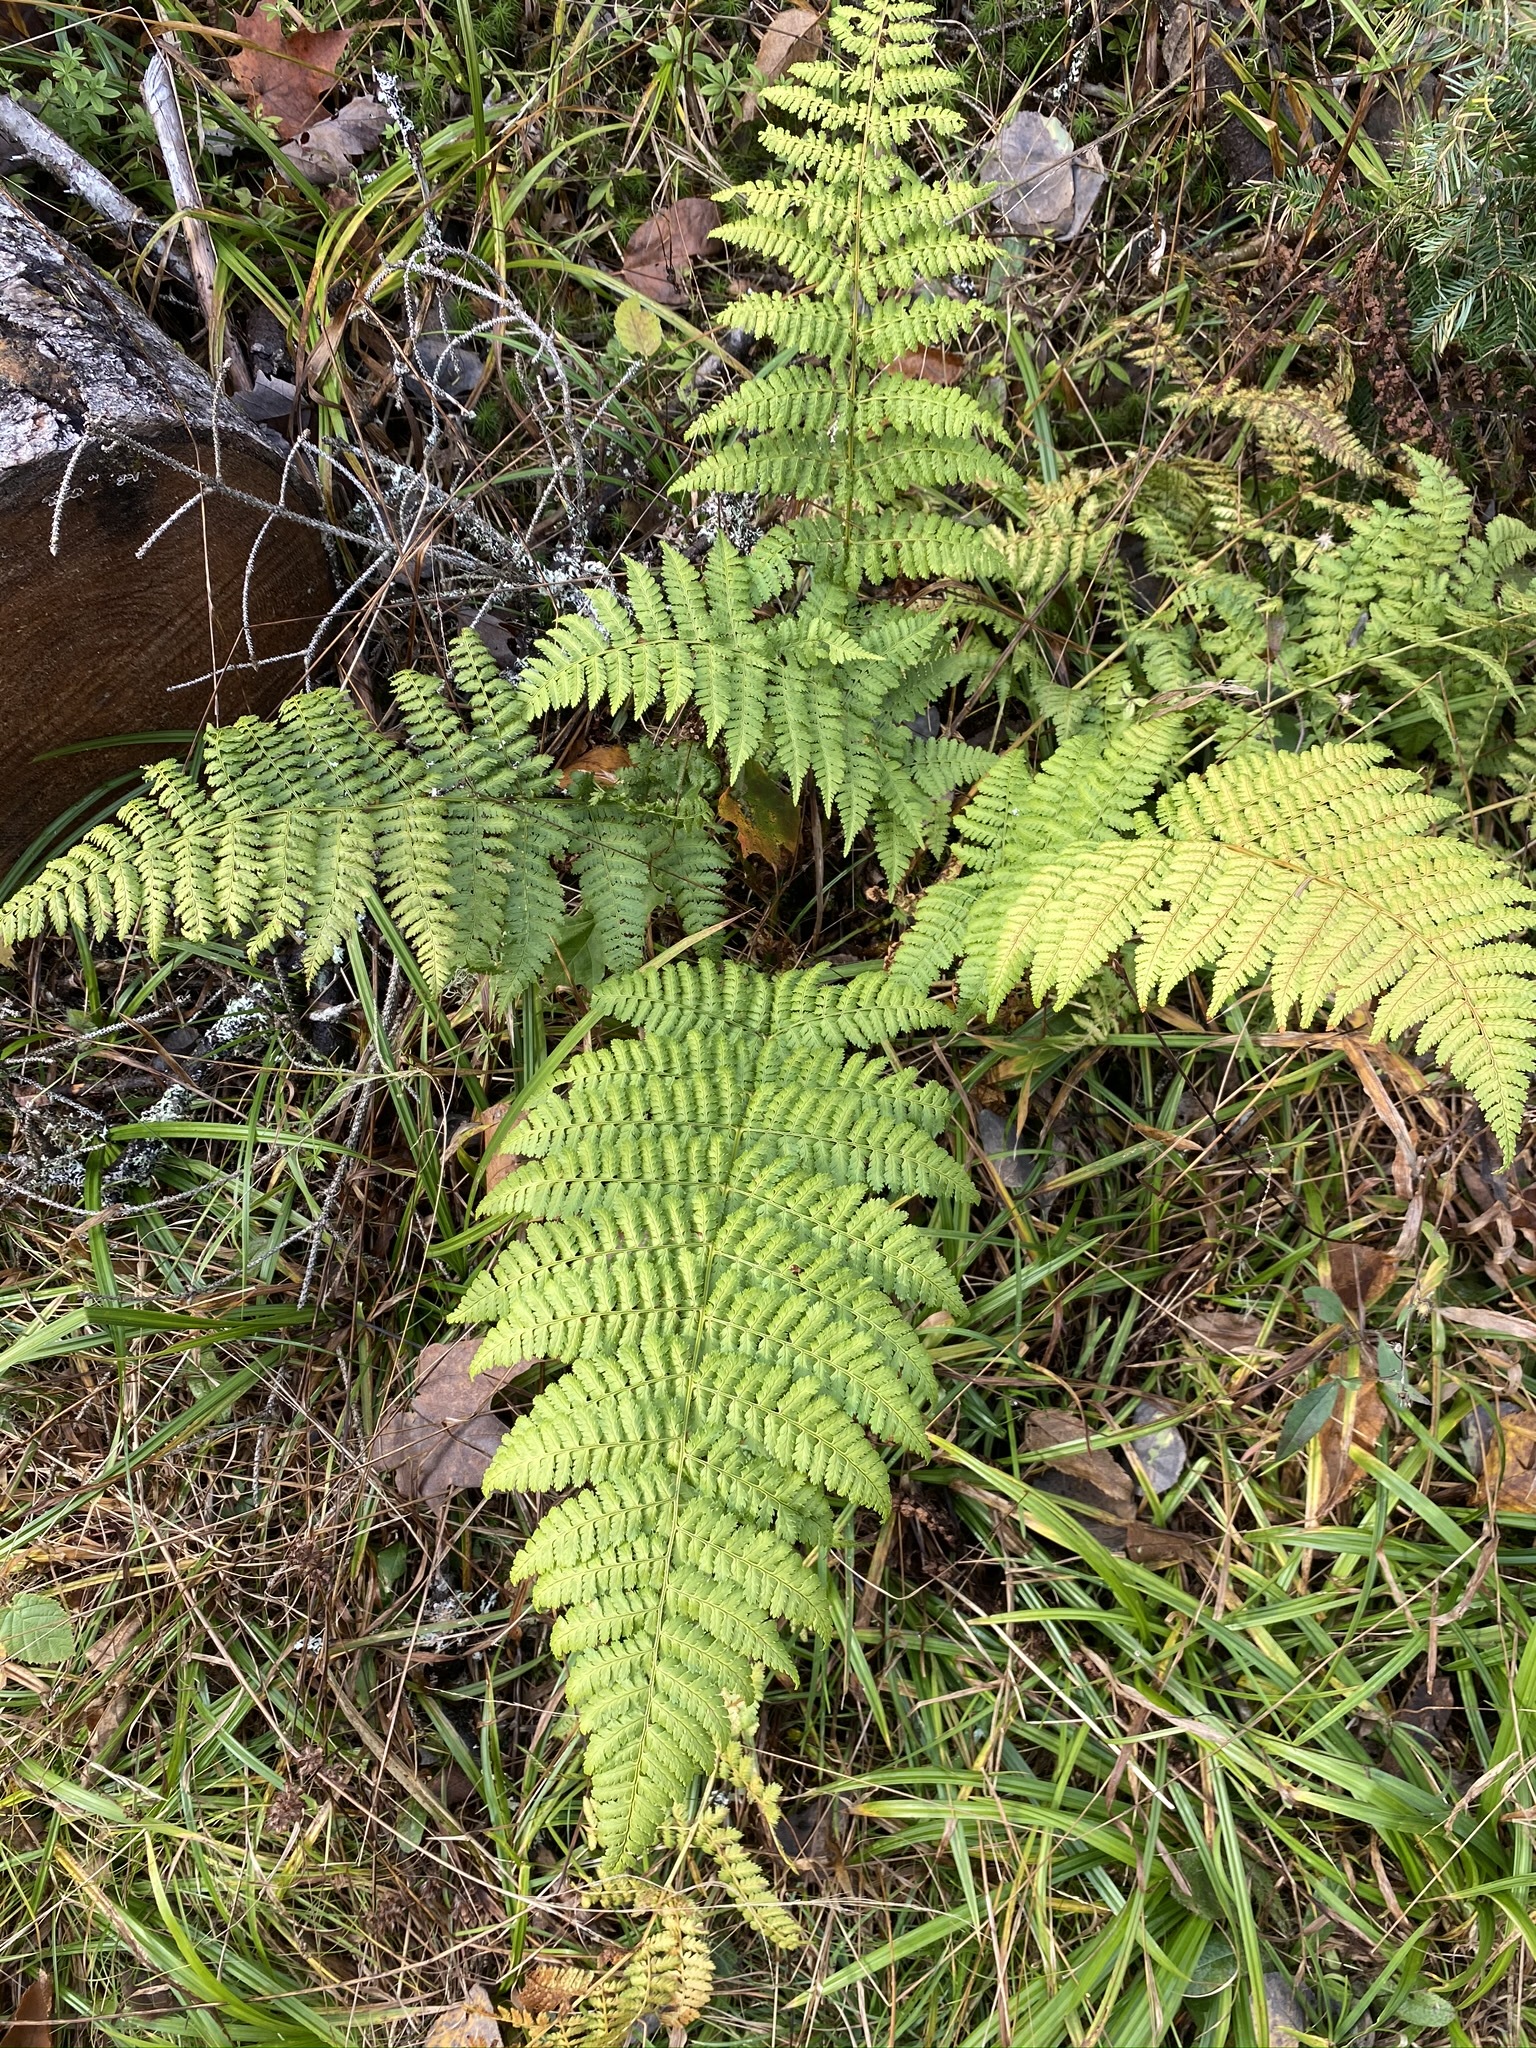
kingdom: Plantae
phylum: Tracheophyta
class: Polypodiopsida
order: Polypodiales
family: Dryopteridaceae
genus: Dryopteris
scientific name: Dryopteris intermedia
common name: Evergreen wood fern
